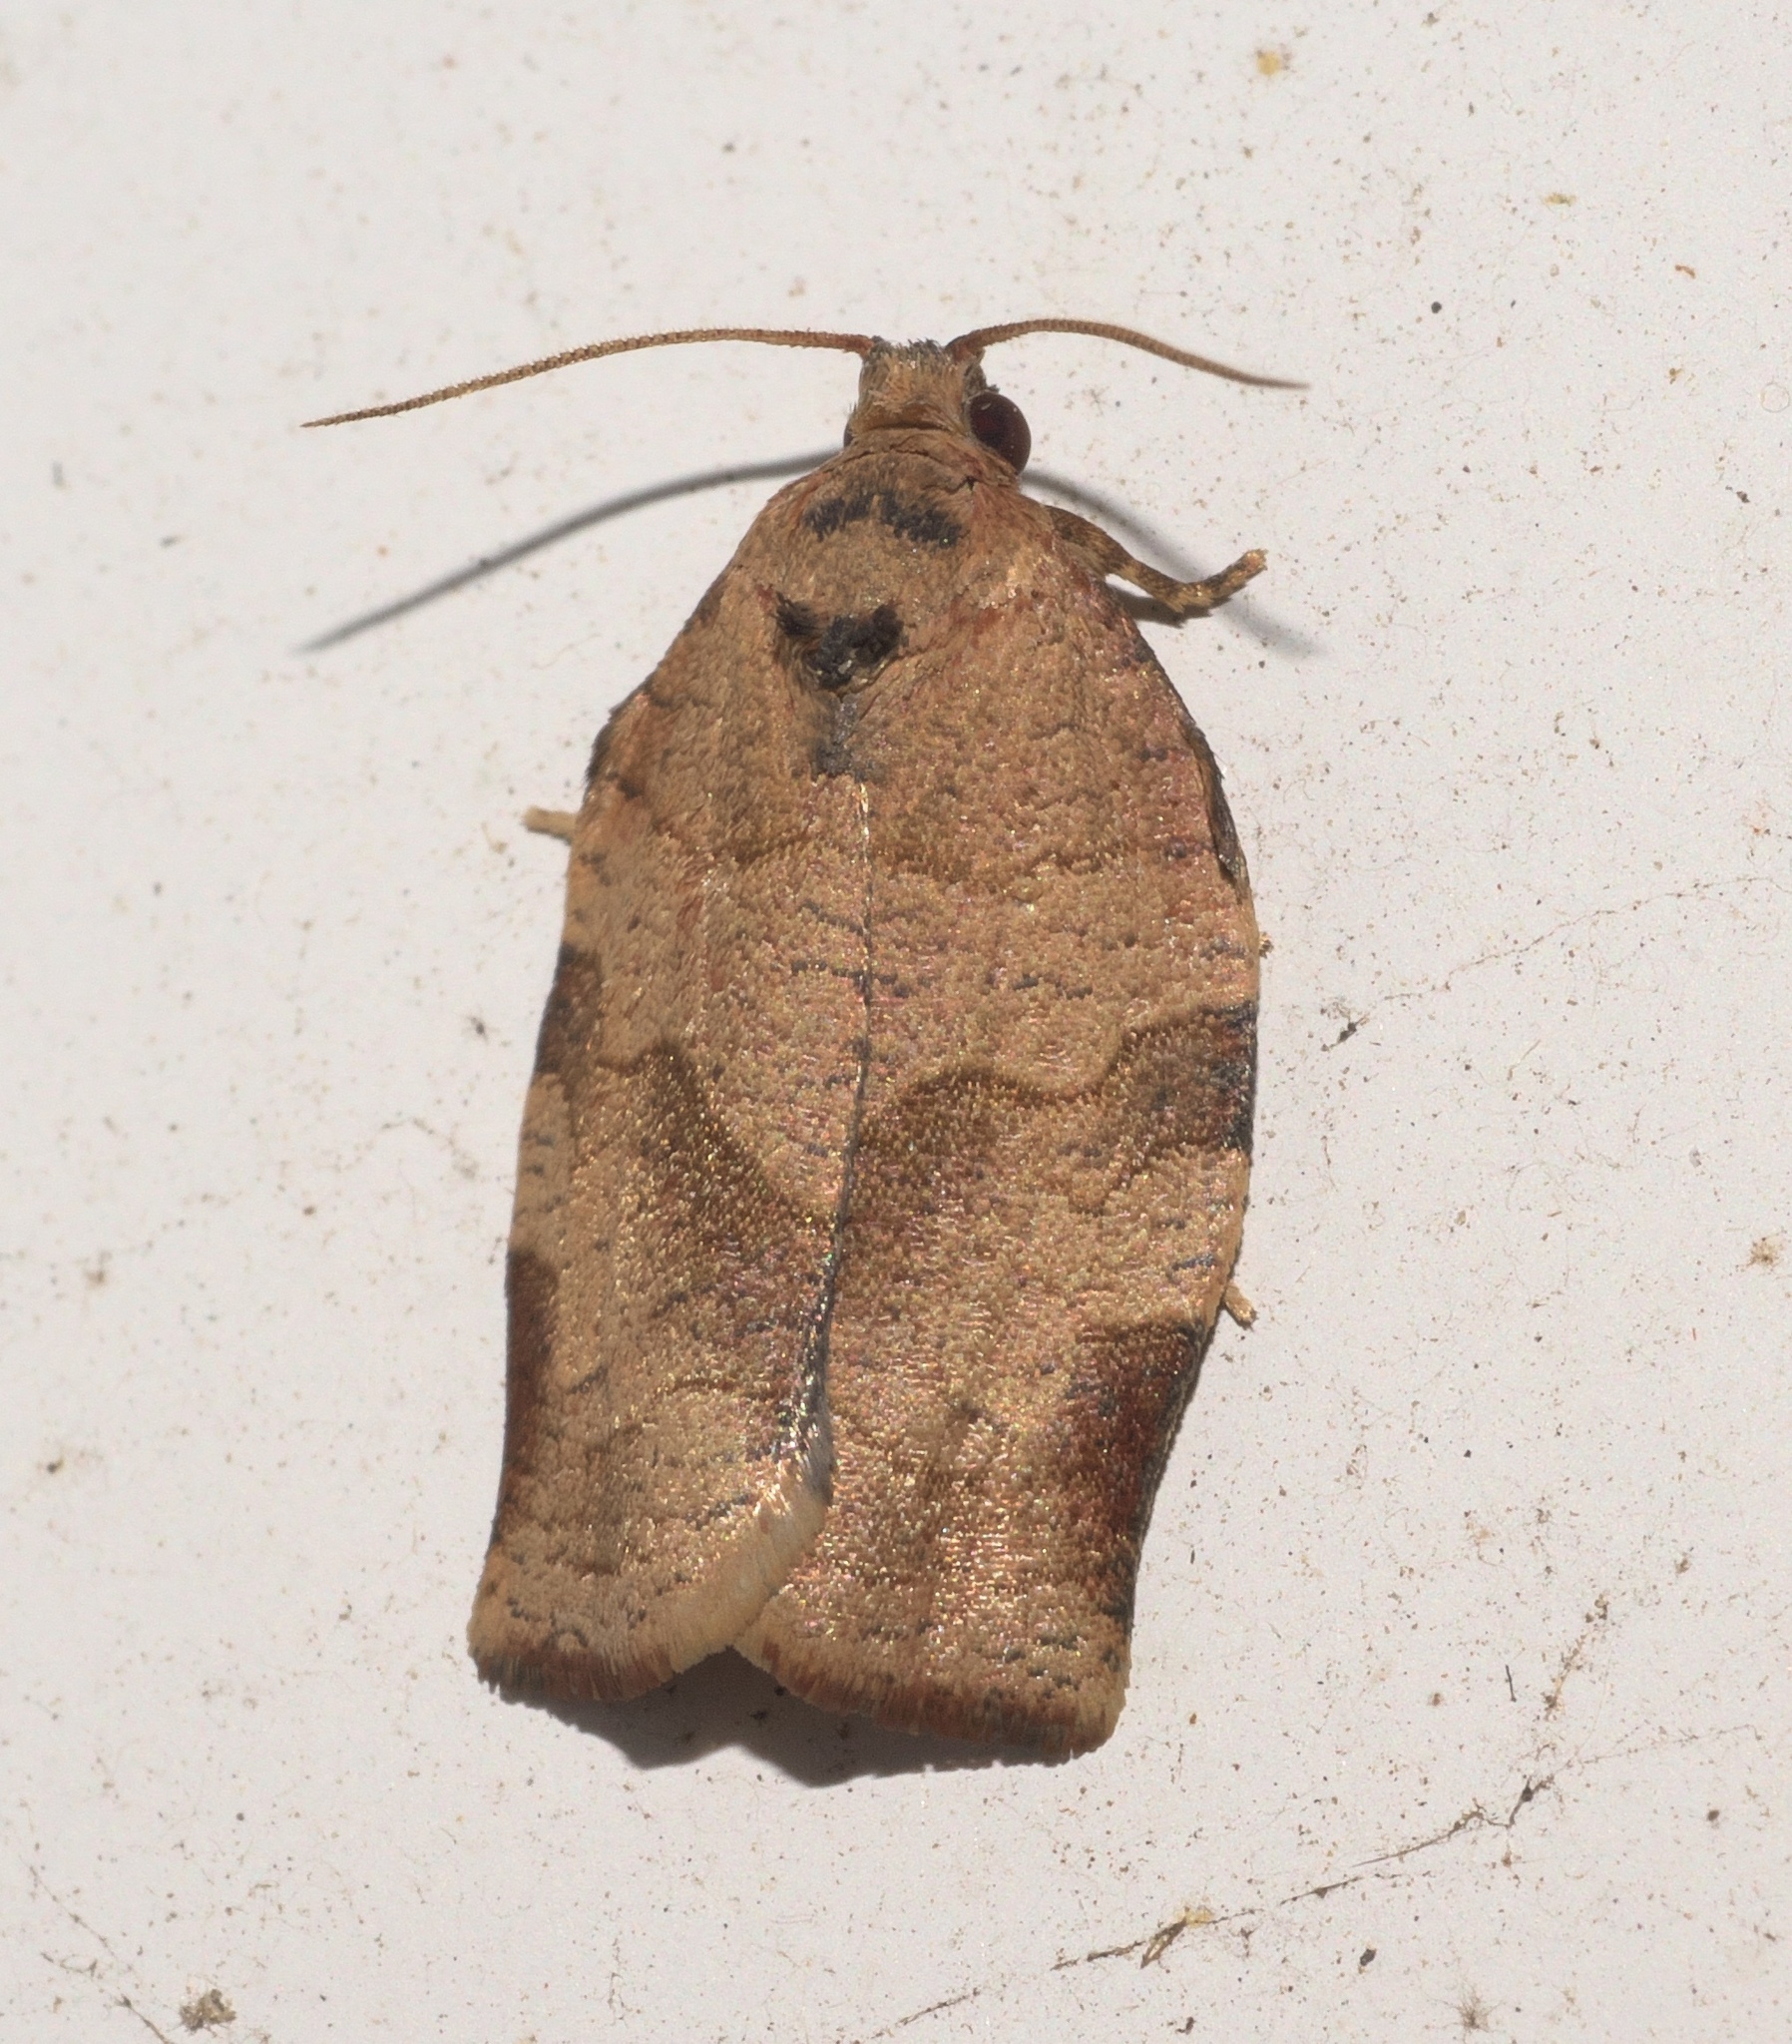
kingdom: Animalia
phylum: Arthropoda
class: Insecta
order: Lepidoptera
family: Tortricidae
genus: Choristoneura
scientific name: Choristoneura rosaceana
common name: Oblique-banded leafroller moth
